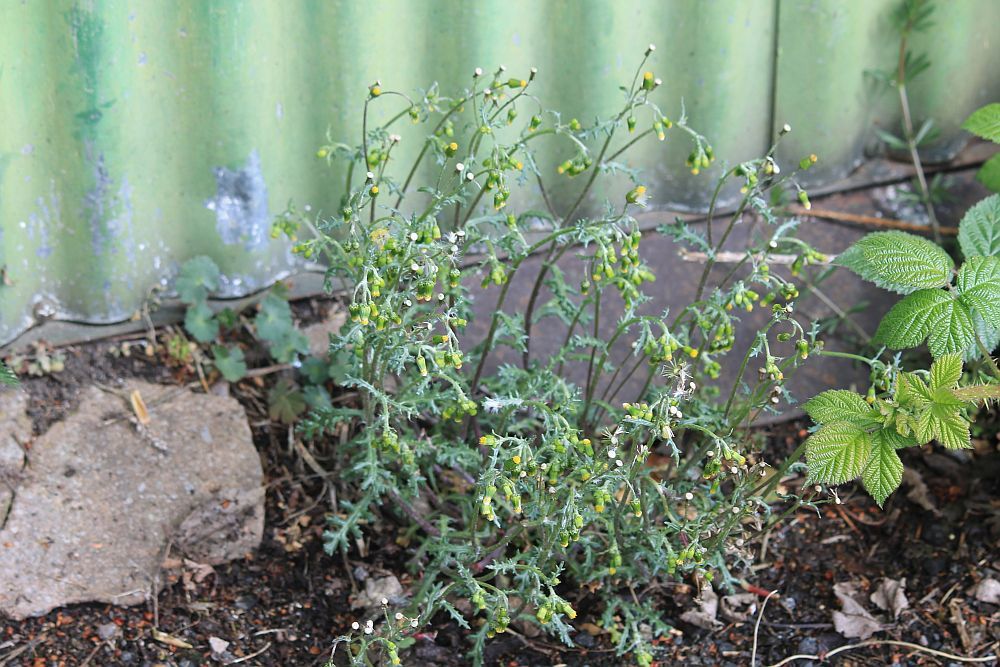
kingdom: Plantae
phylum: Tracheophyta
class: Magnoliopsida
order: Asterales
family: Asteraceae
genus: Senecio
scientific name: Senecio vulgaris
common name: Old-man-in-the-spring
